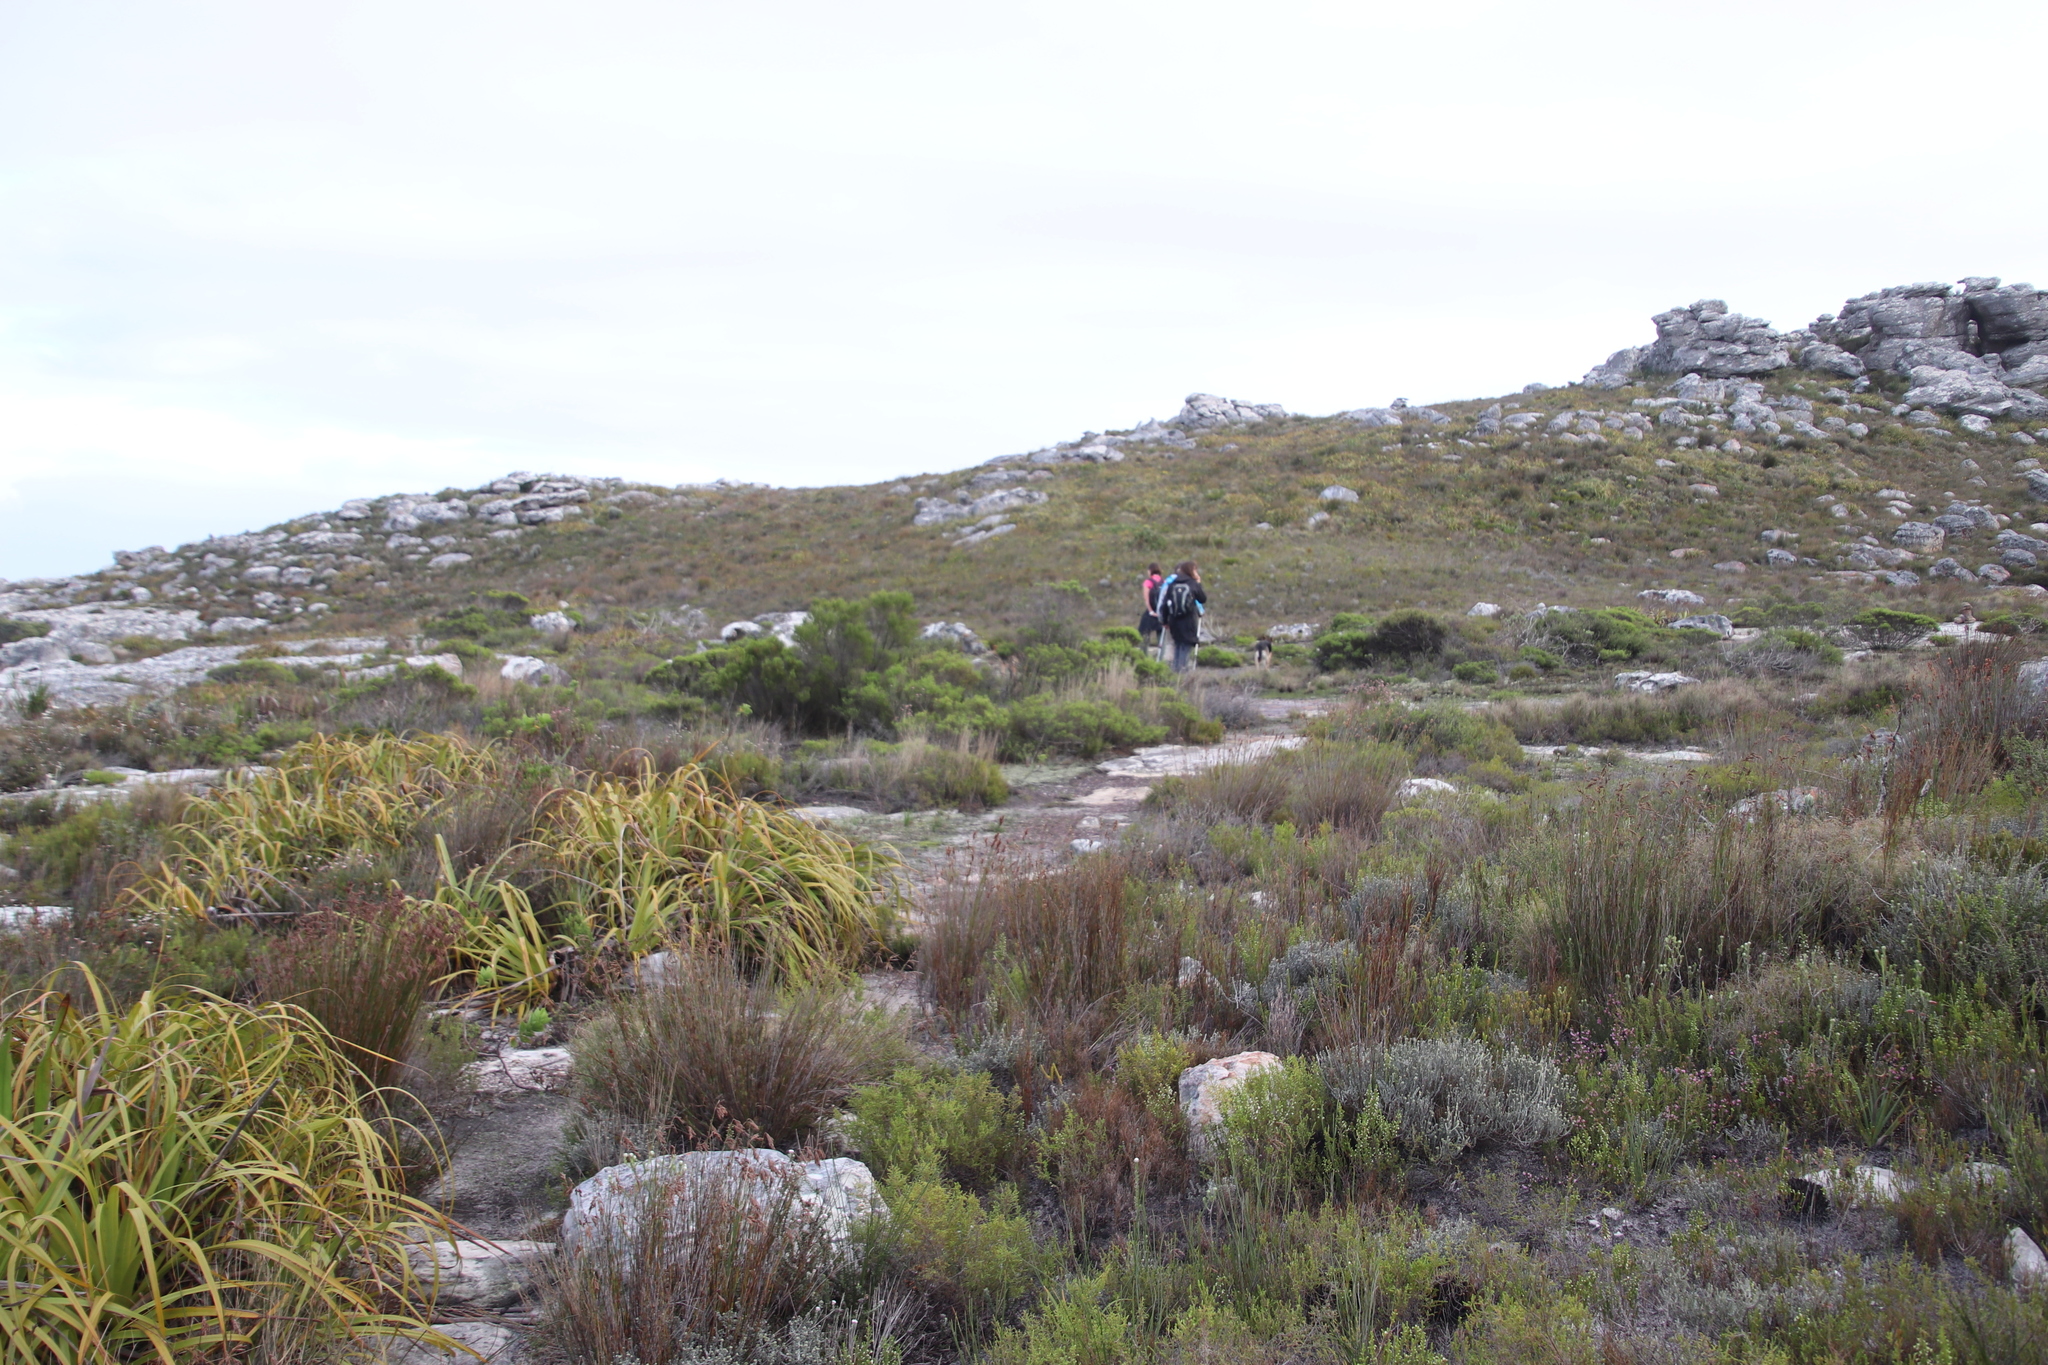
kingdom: Plantae
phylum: Tracheophyta
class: Liliopsida
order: Poales
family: Cyperaceae
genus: Tetraria
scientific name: Tetraria thermalis
